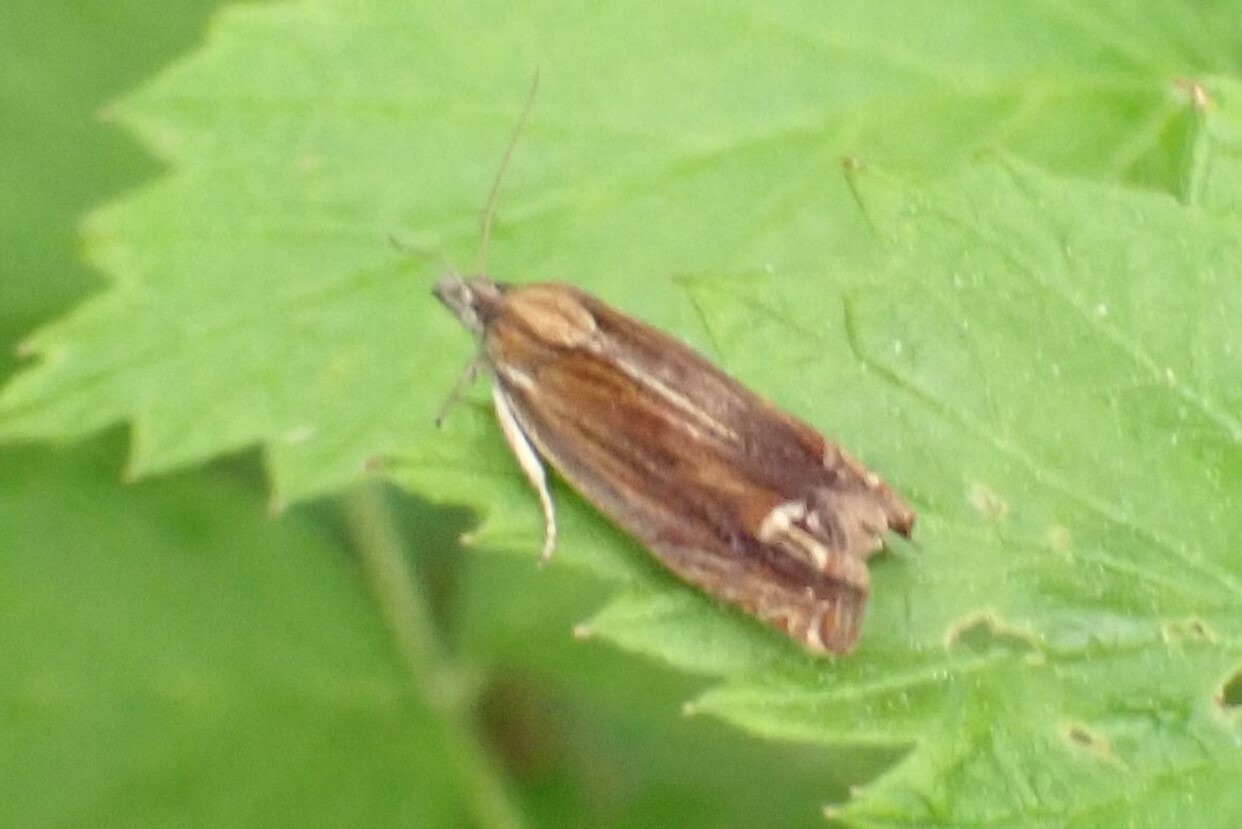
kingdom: Animalia
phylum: Arthropoda
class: Insecta
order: Lepidoptera
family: Tortricidae
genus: Eucosma
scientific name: Eucosma formosana
